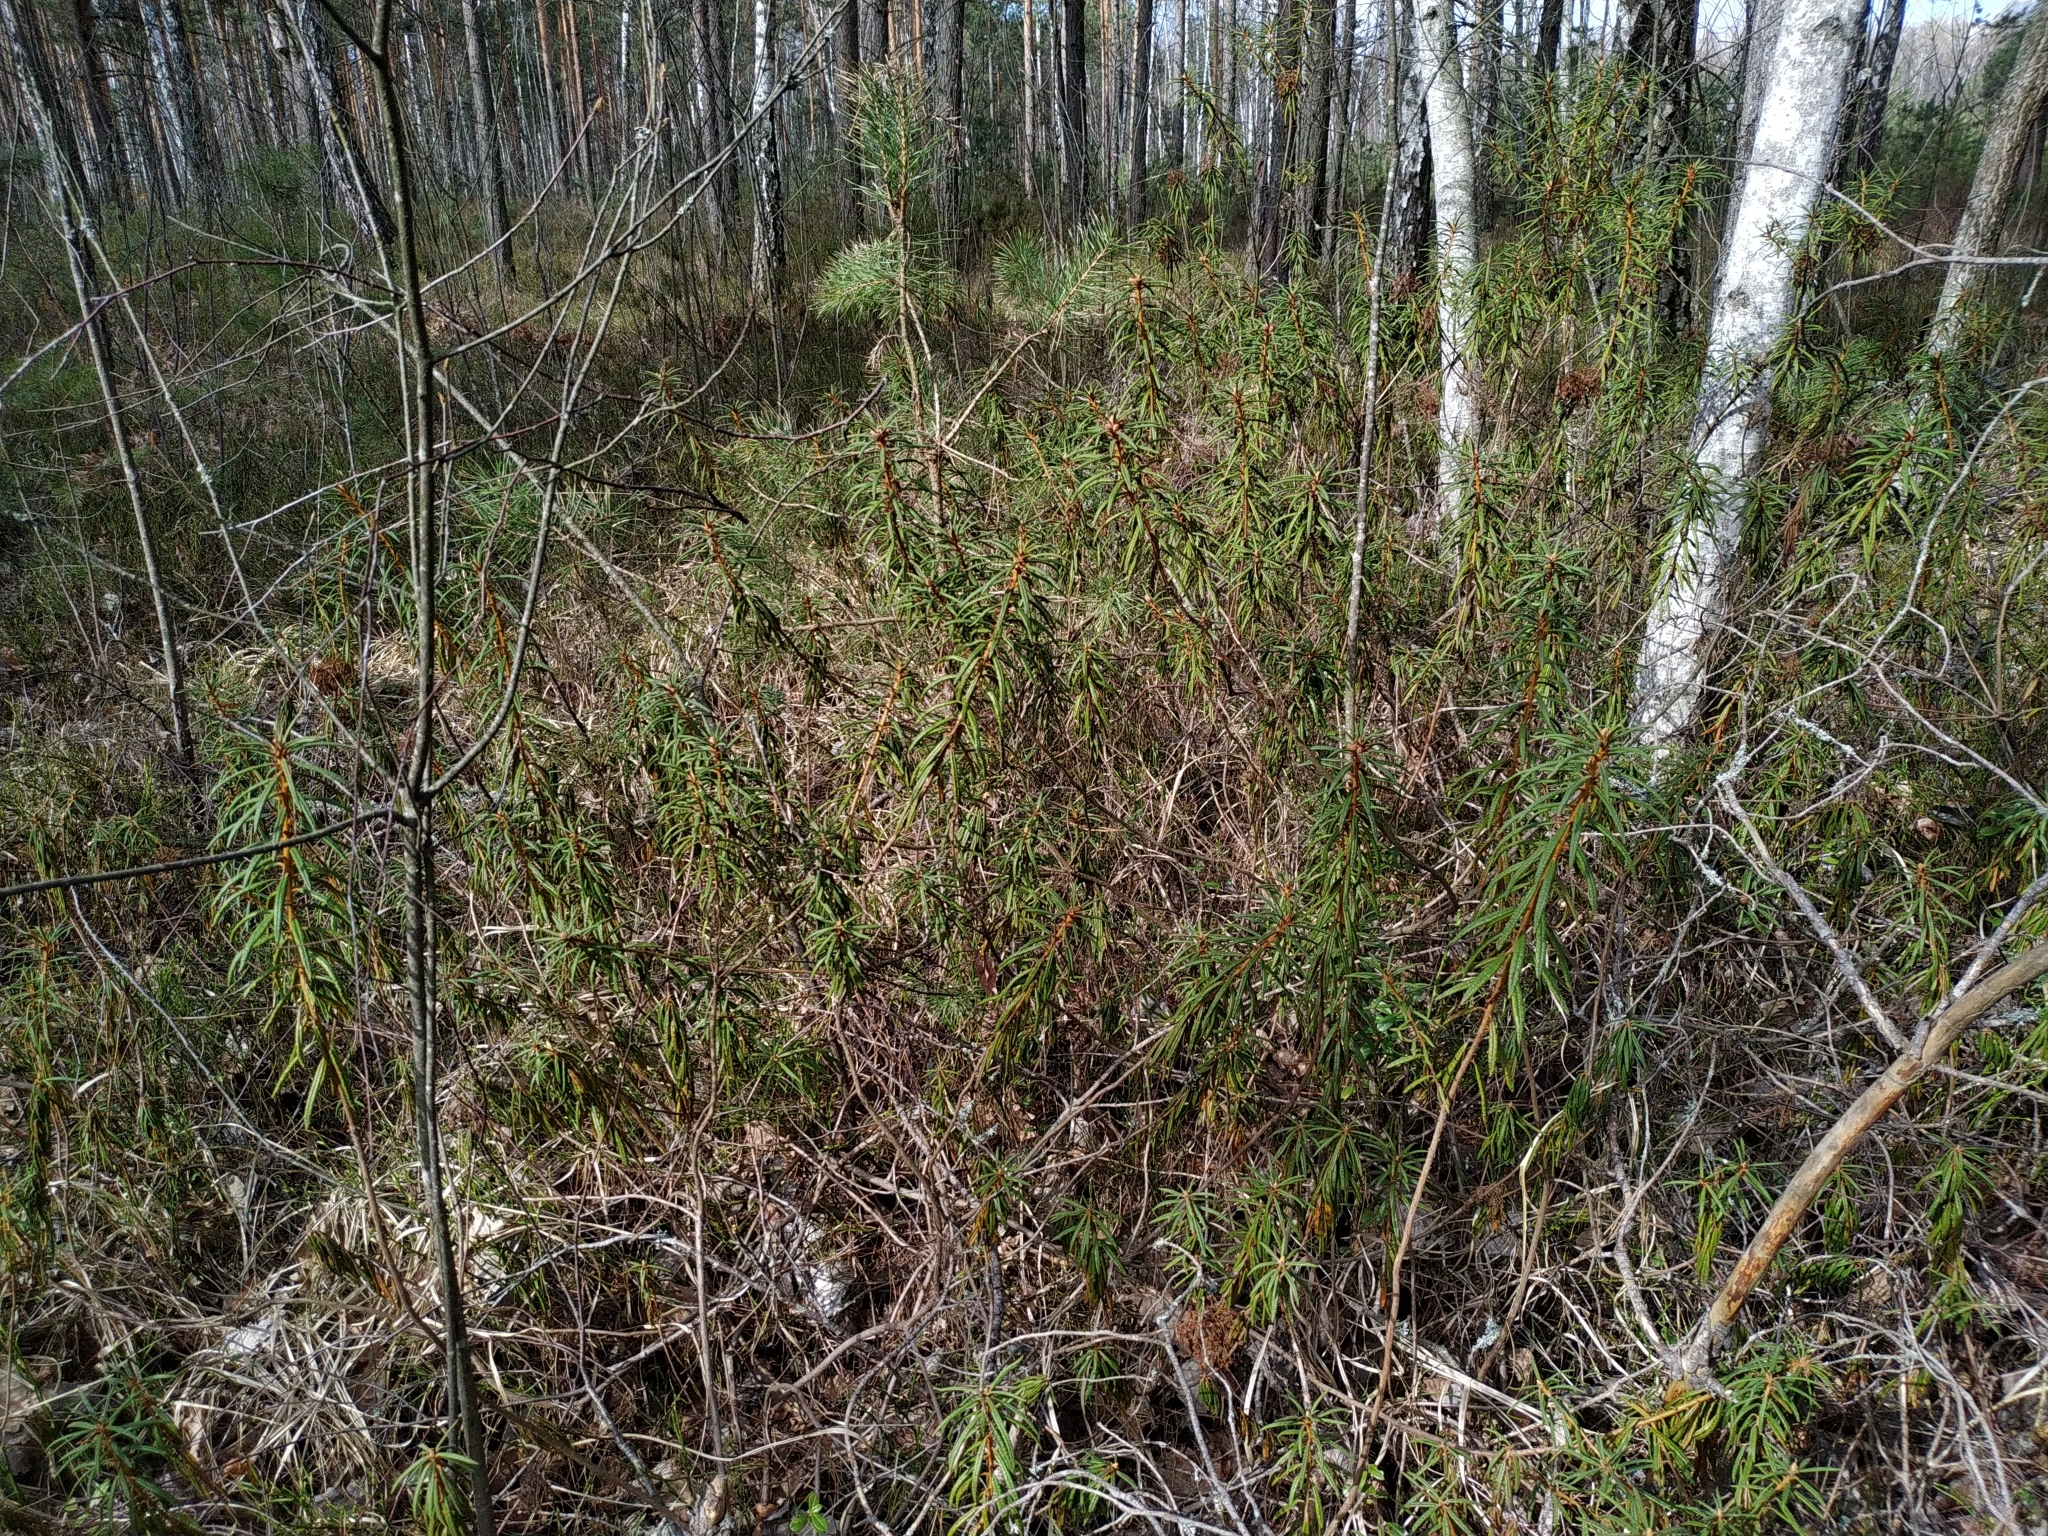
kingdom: Plantae
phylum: Tracheophyta
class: Magnoliopsida
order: Ericales
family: Ericaceae
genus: Rhododendron
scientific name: Rhododendron tomentosum
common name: Marsh labrador tea
